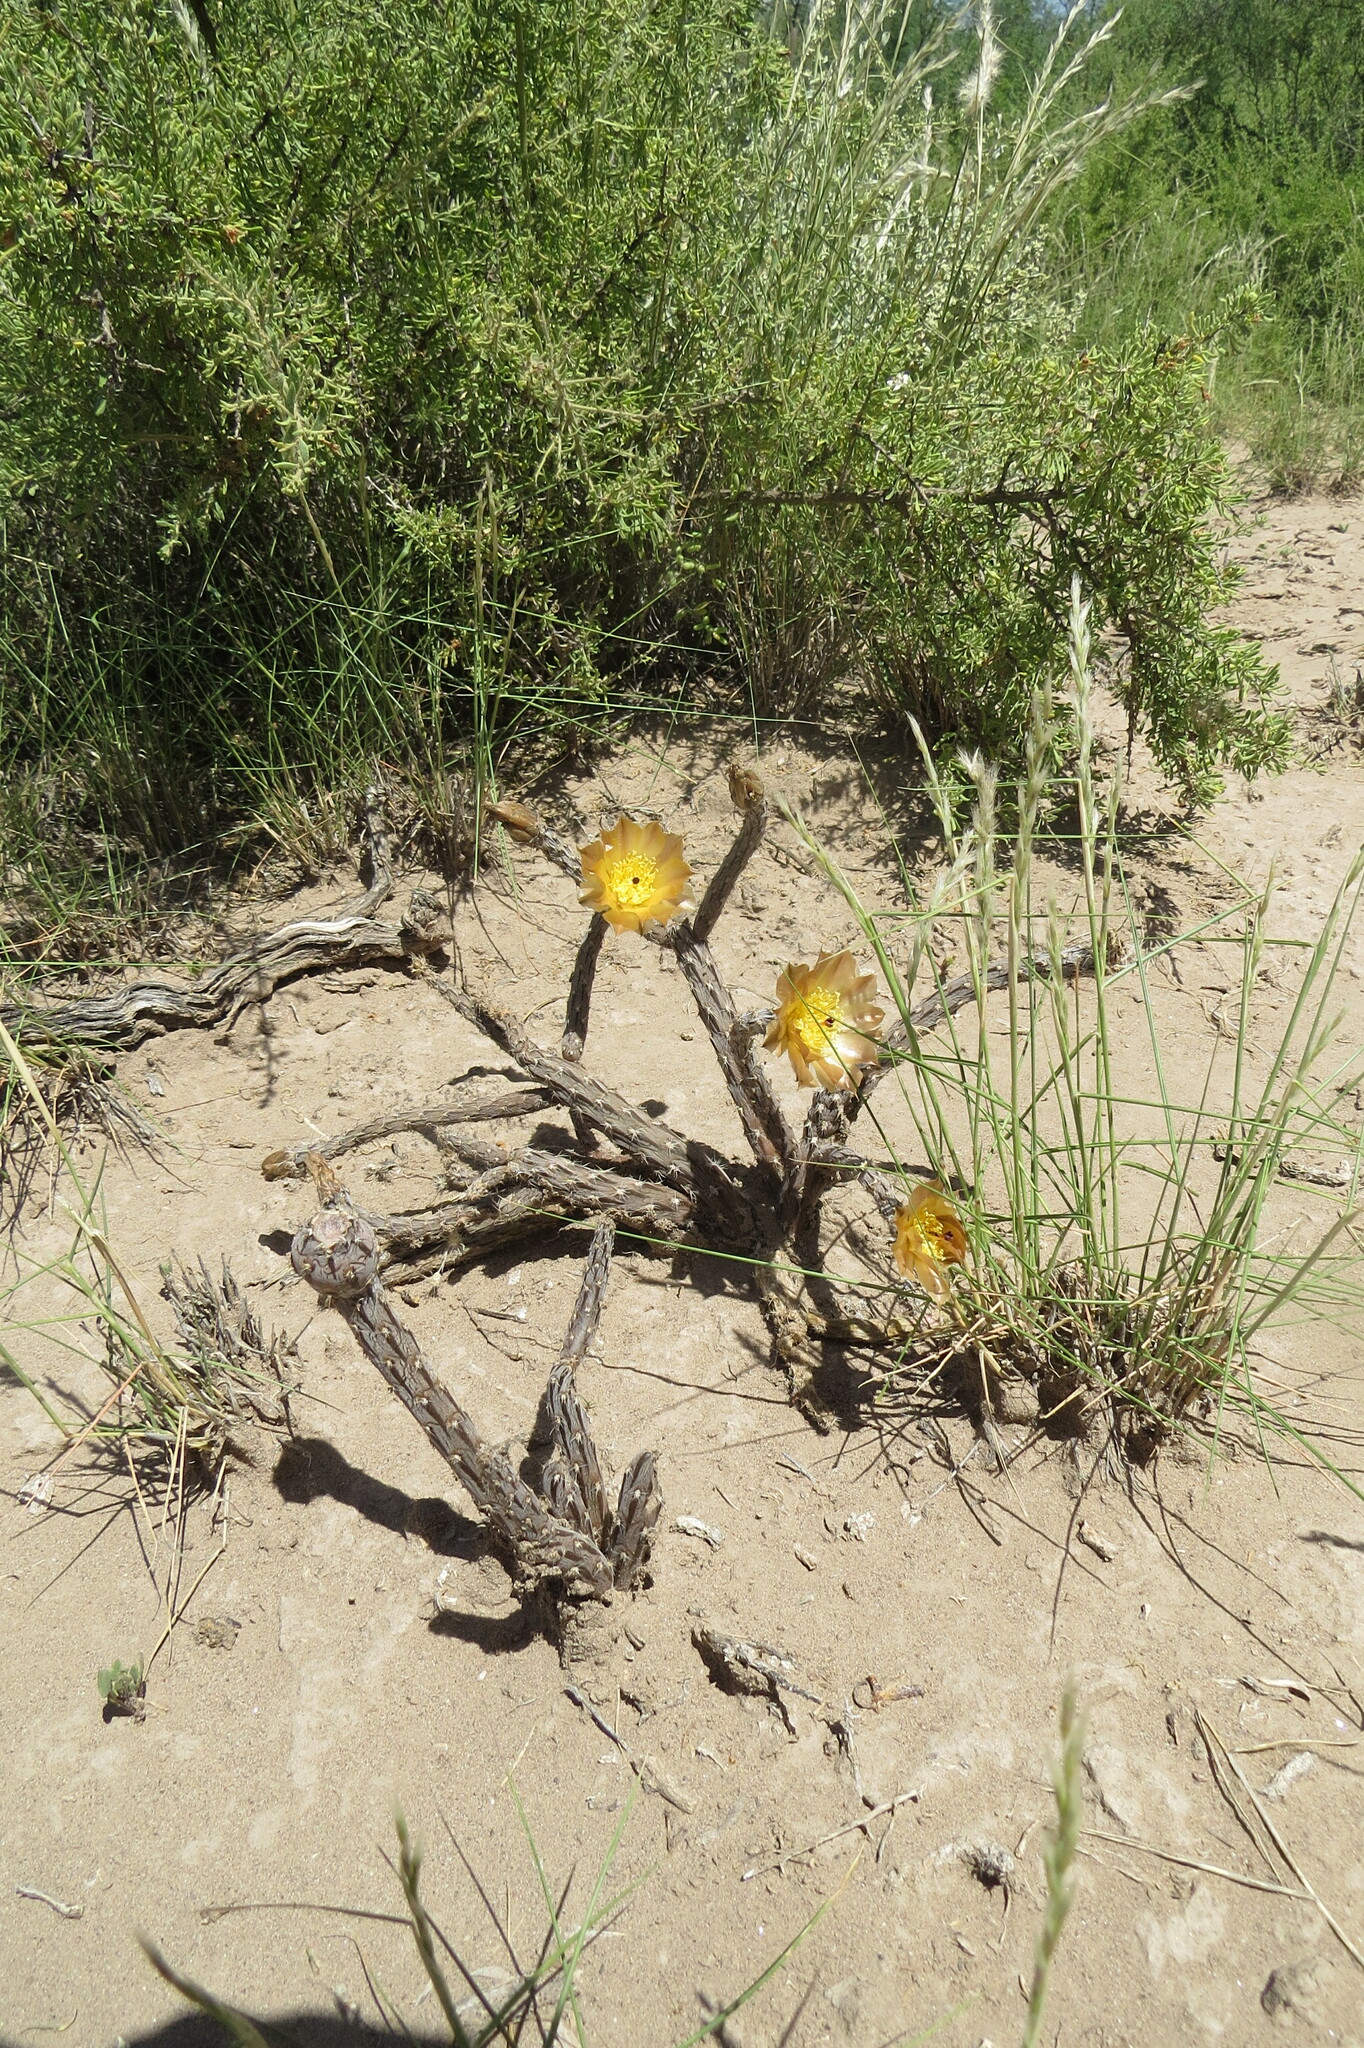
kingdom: Plantae
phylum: Tracheophyta
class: Magnoliopsida
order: Caryophyllales
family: Cactaceae
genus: Pterocactus
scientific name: Pterocactus tuberosus
